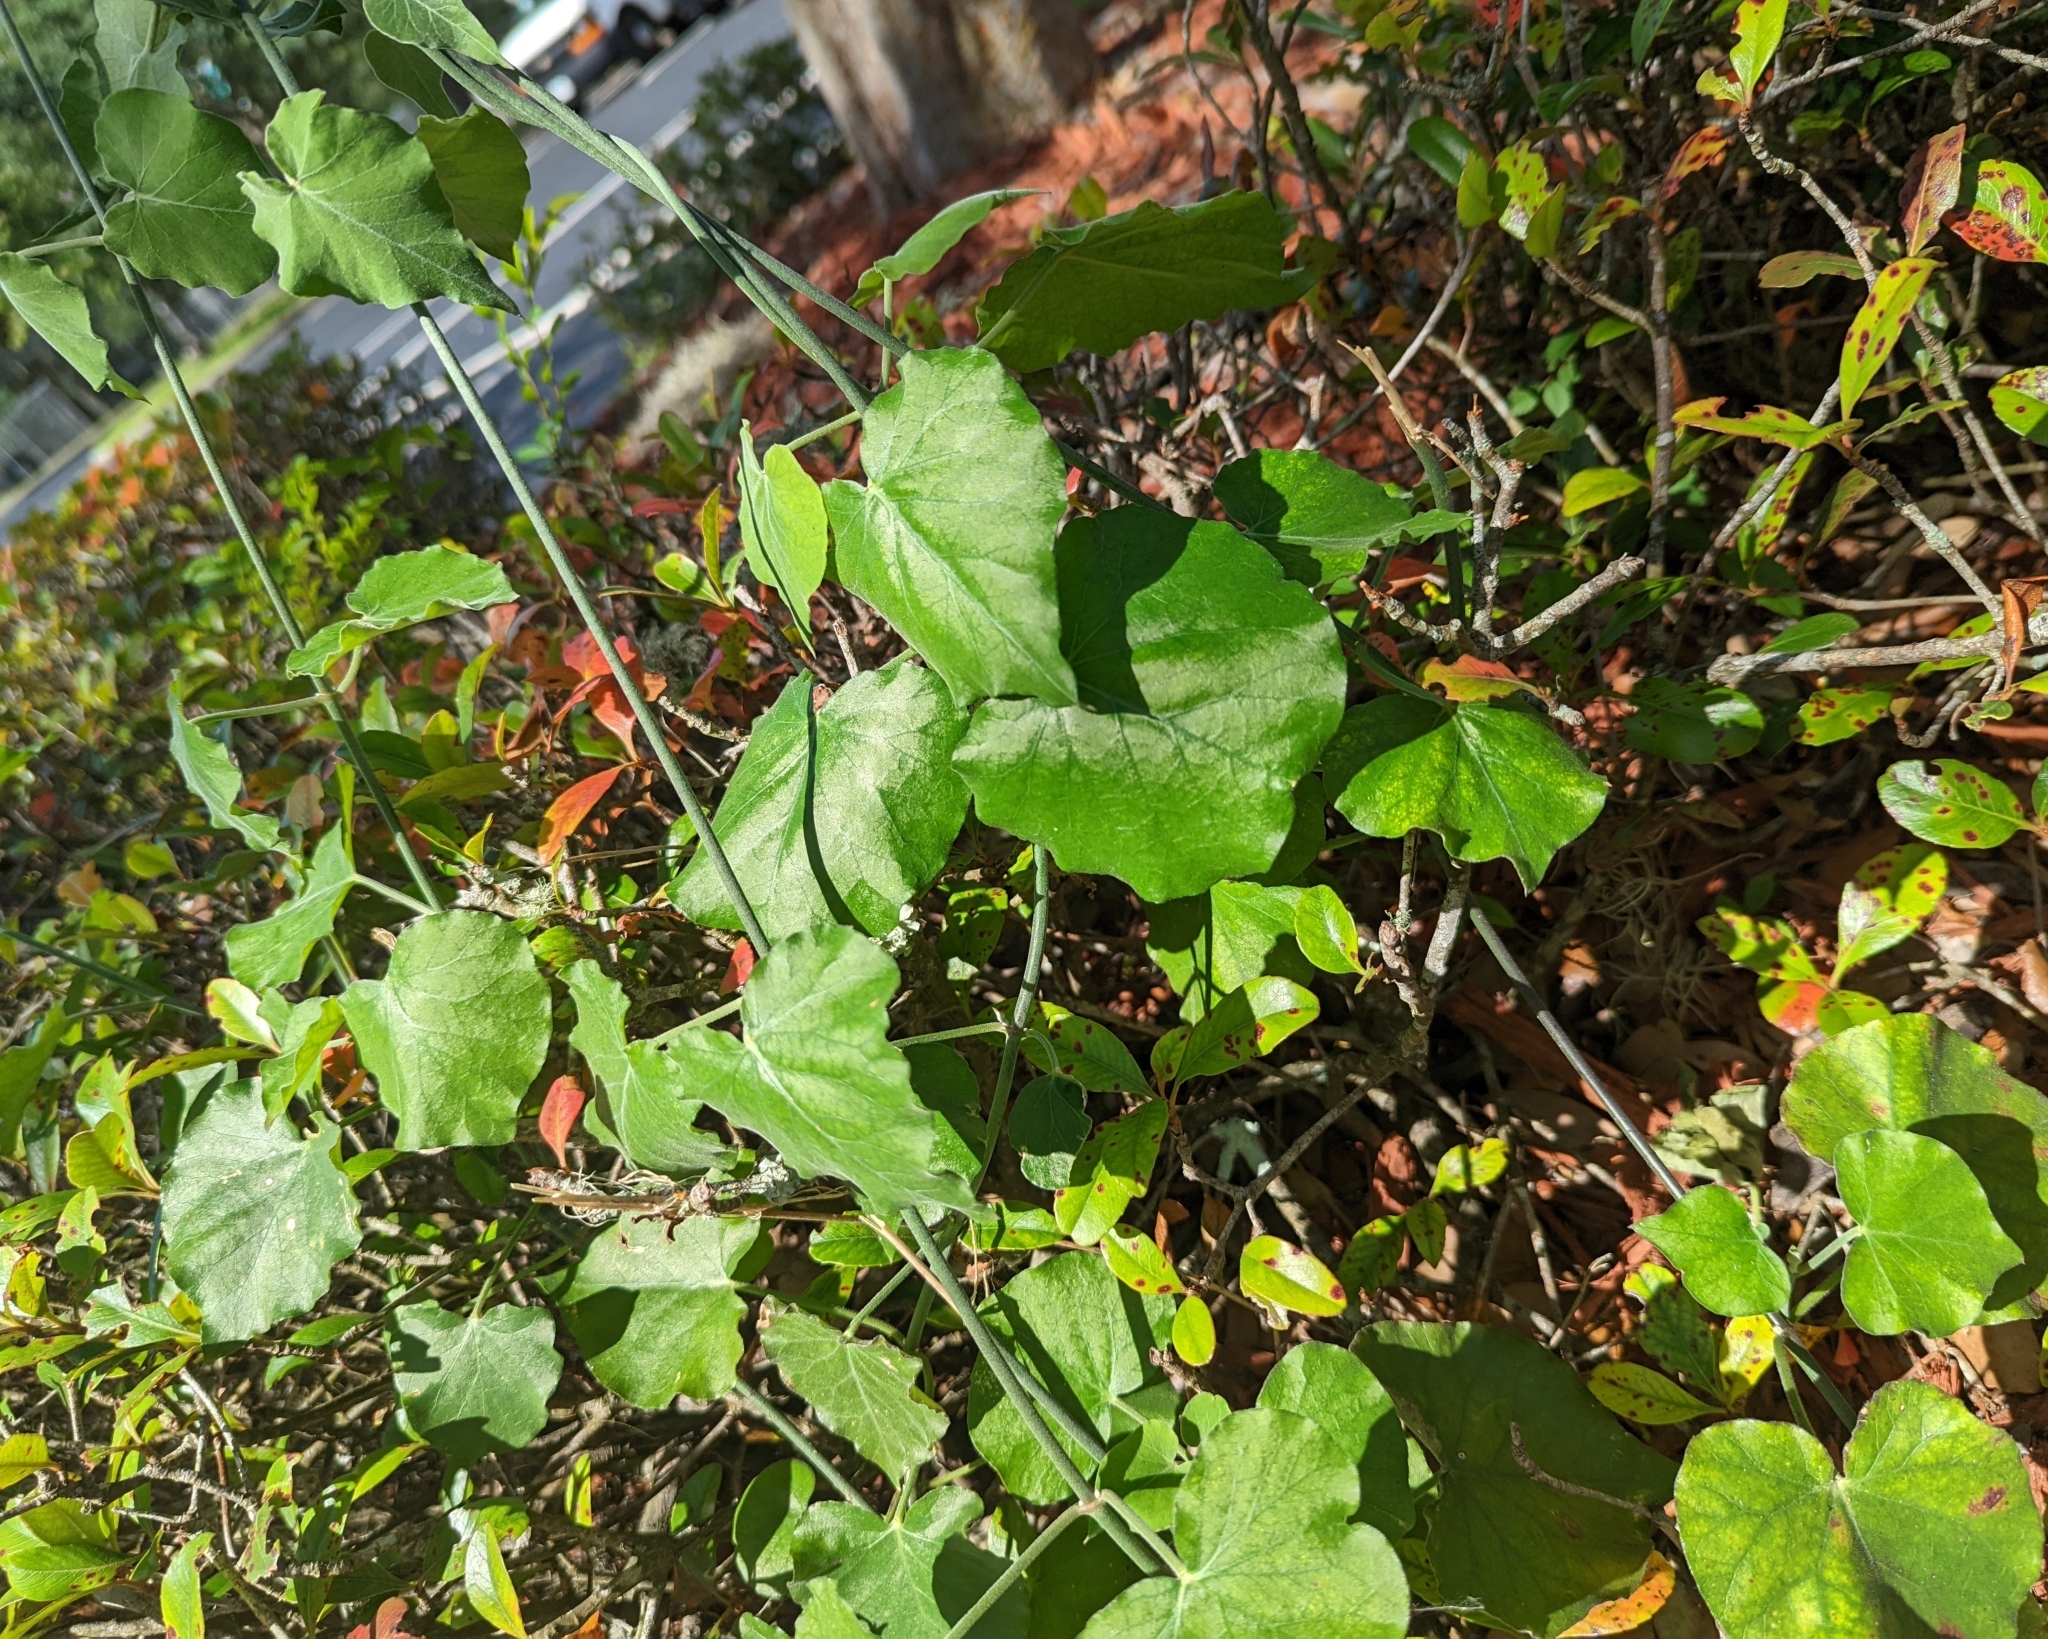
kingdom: Plantae
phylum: Tracheophyta
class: Magnoliopsida
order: Gentianales
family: Apocynaceae
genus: Araujia
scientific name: Araujia odorata
